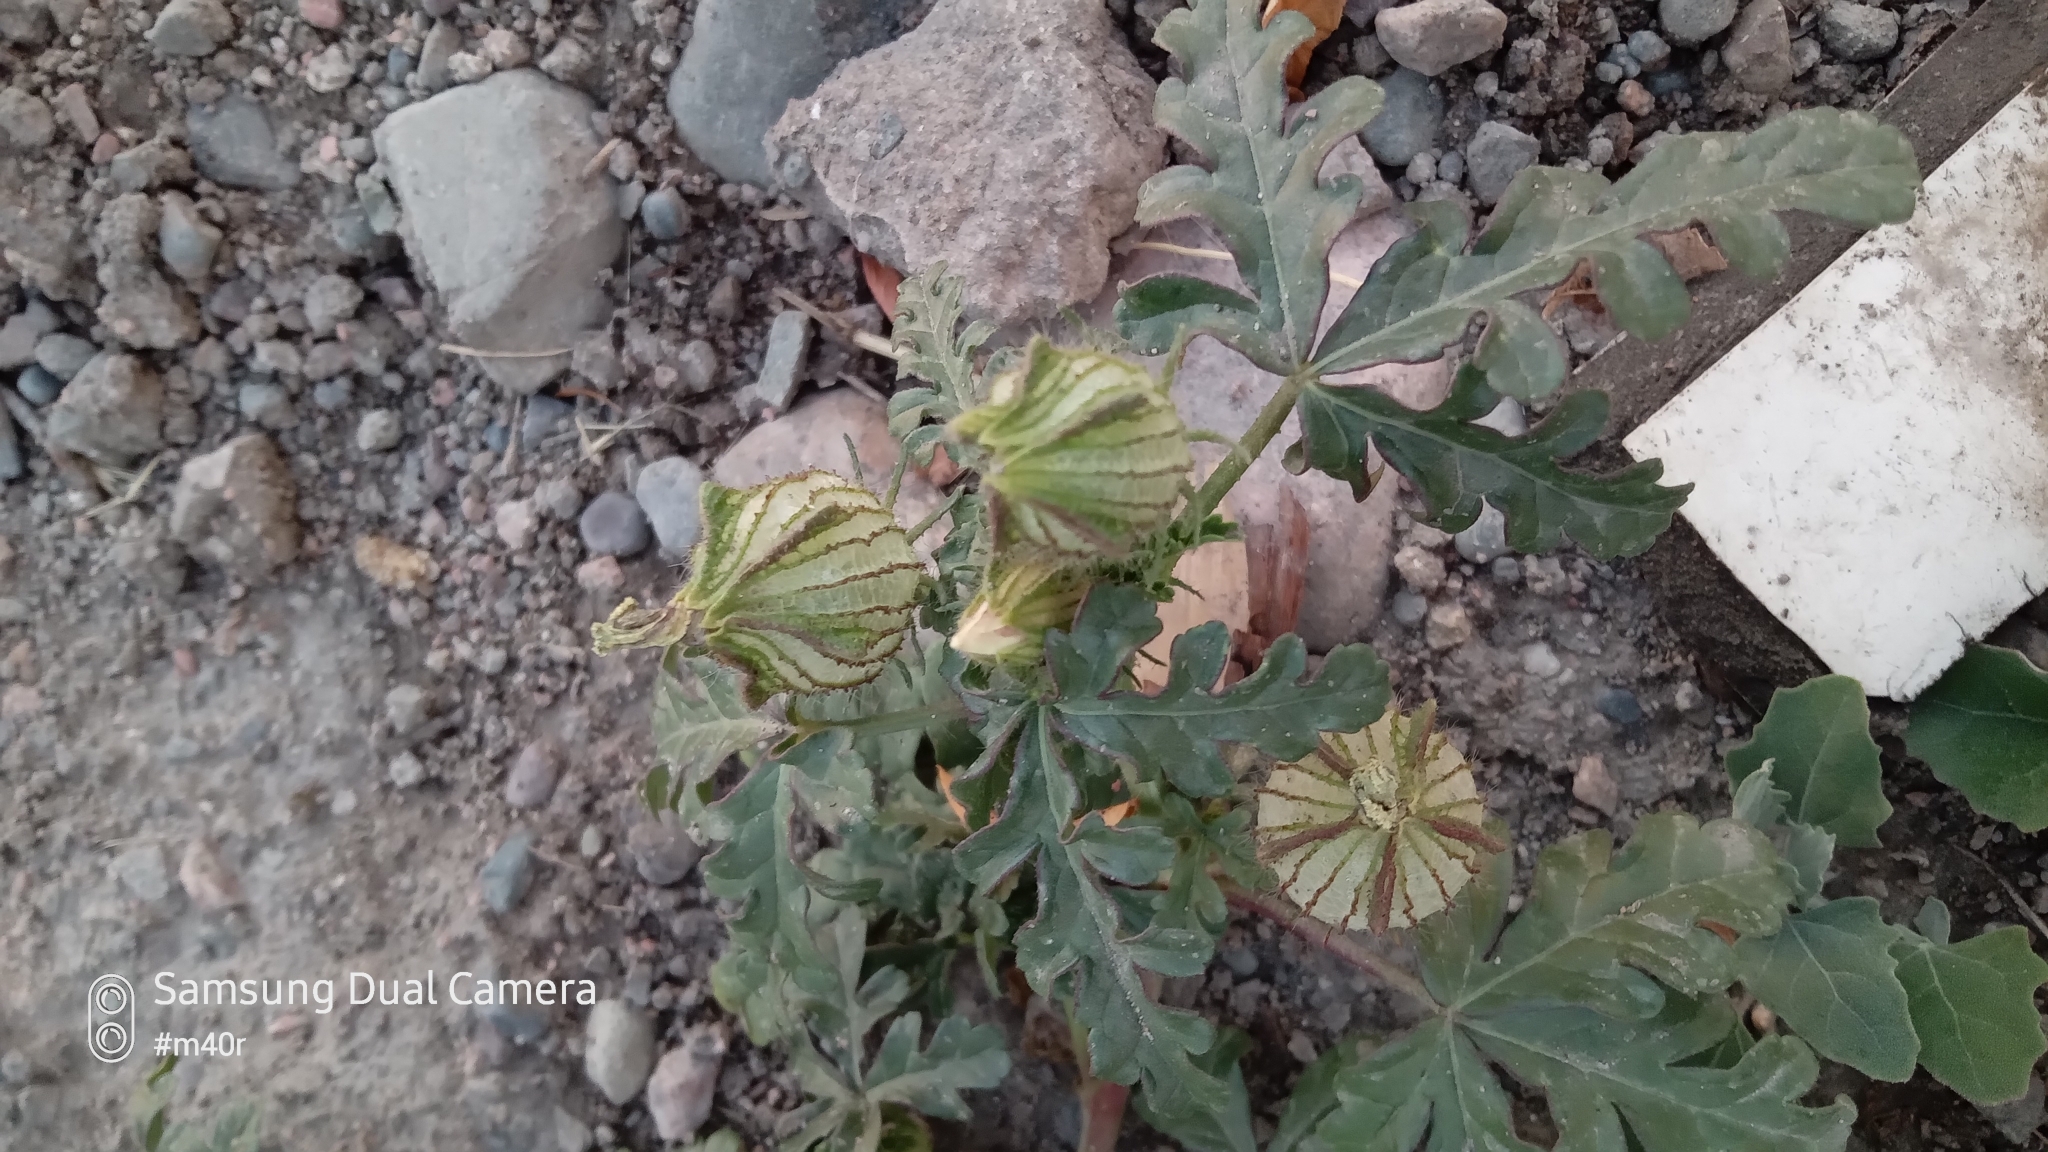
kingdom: Plantae
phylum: Tracheophyta
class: Magnoliopsida
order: Malvales
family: Malvaceae
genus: Hibiscus
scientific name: Hibiscus trionum
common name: Bladder ketmia
